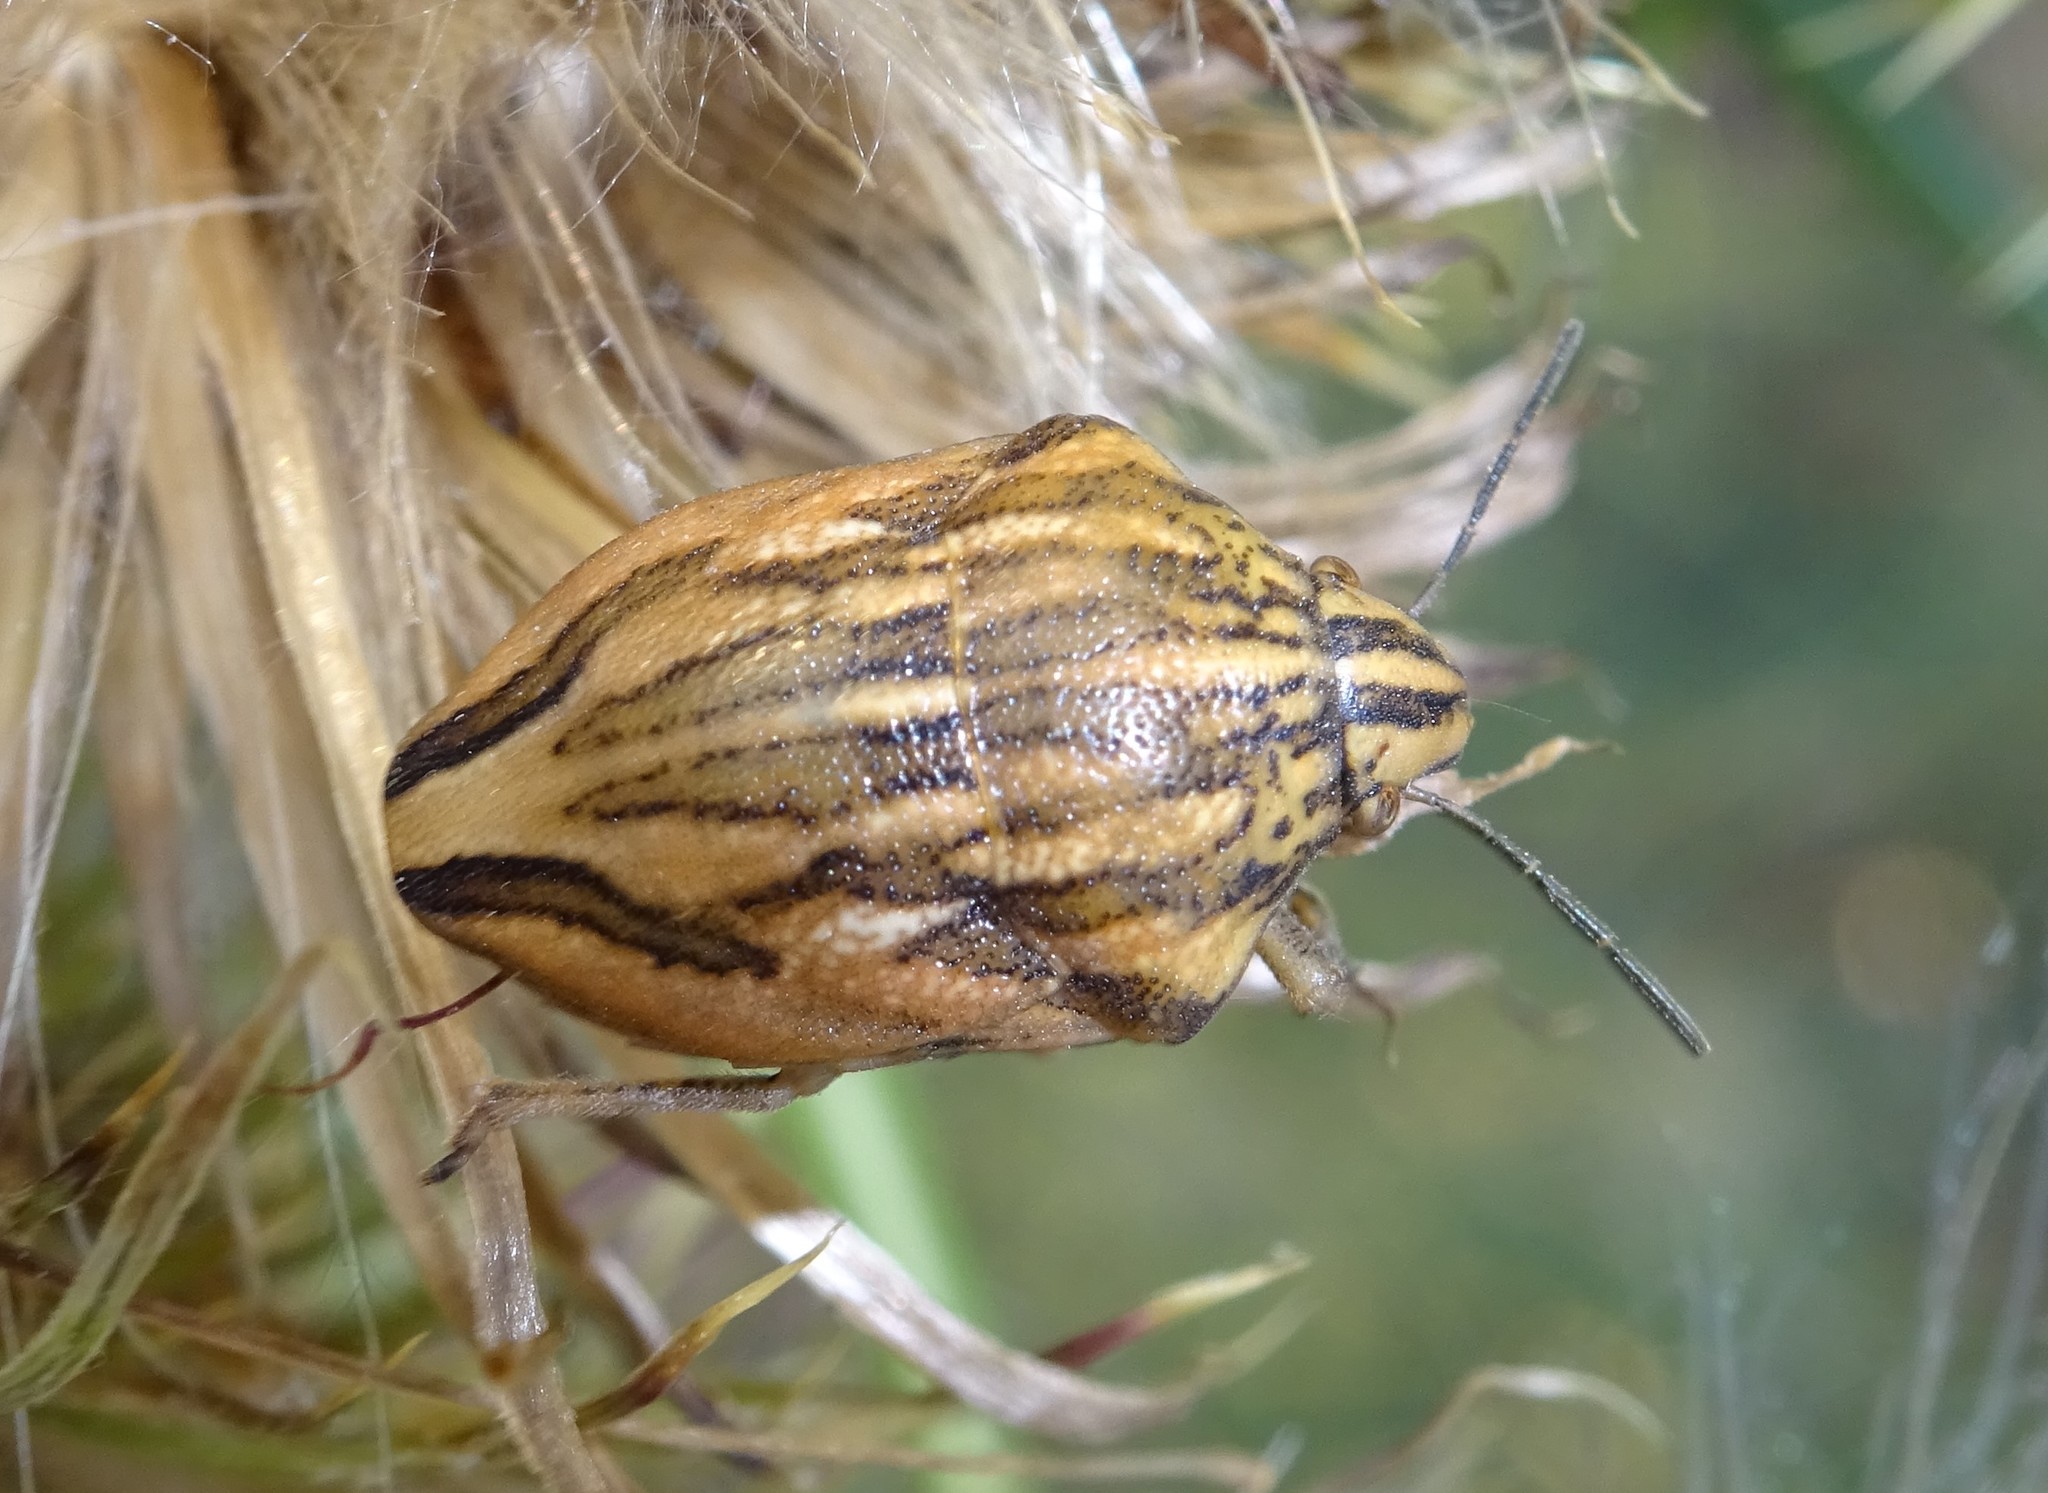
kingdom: Animalia
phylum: Arthropoda
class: Insecta
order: Hemiptera
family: Scutelleridae
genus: Odontotarsus
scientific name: Odontotarsus purpureolineatus
